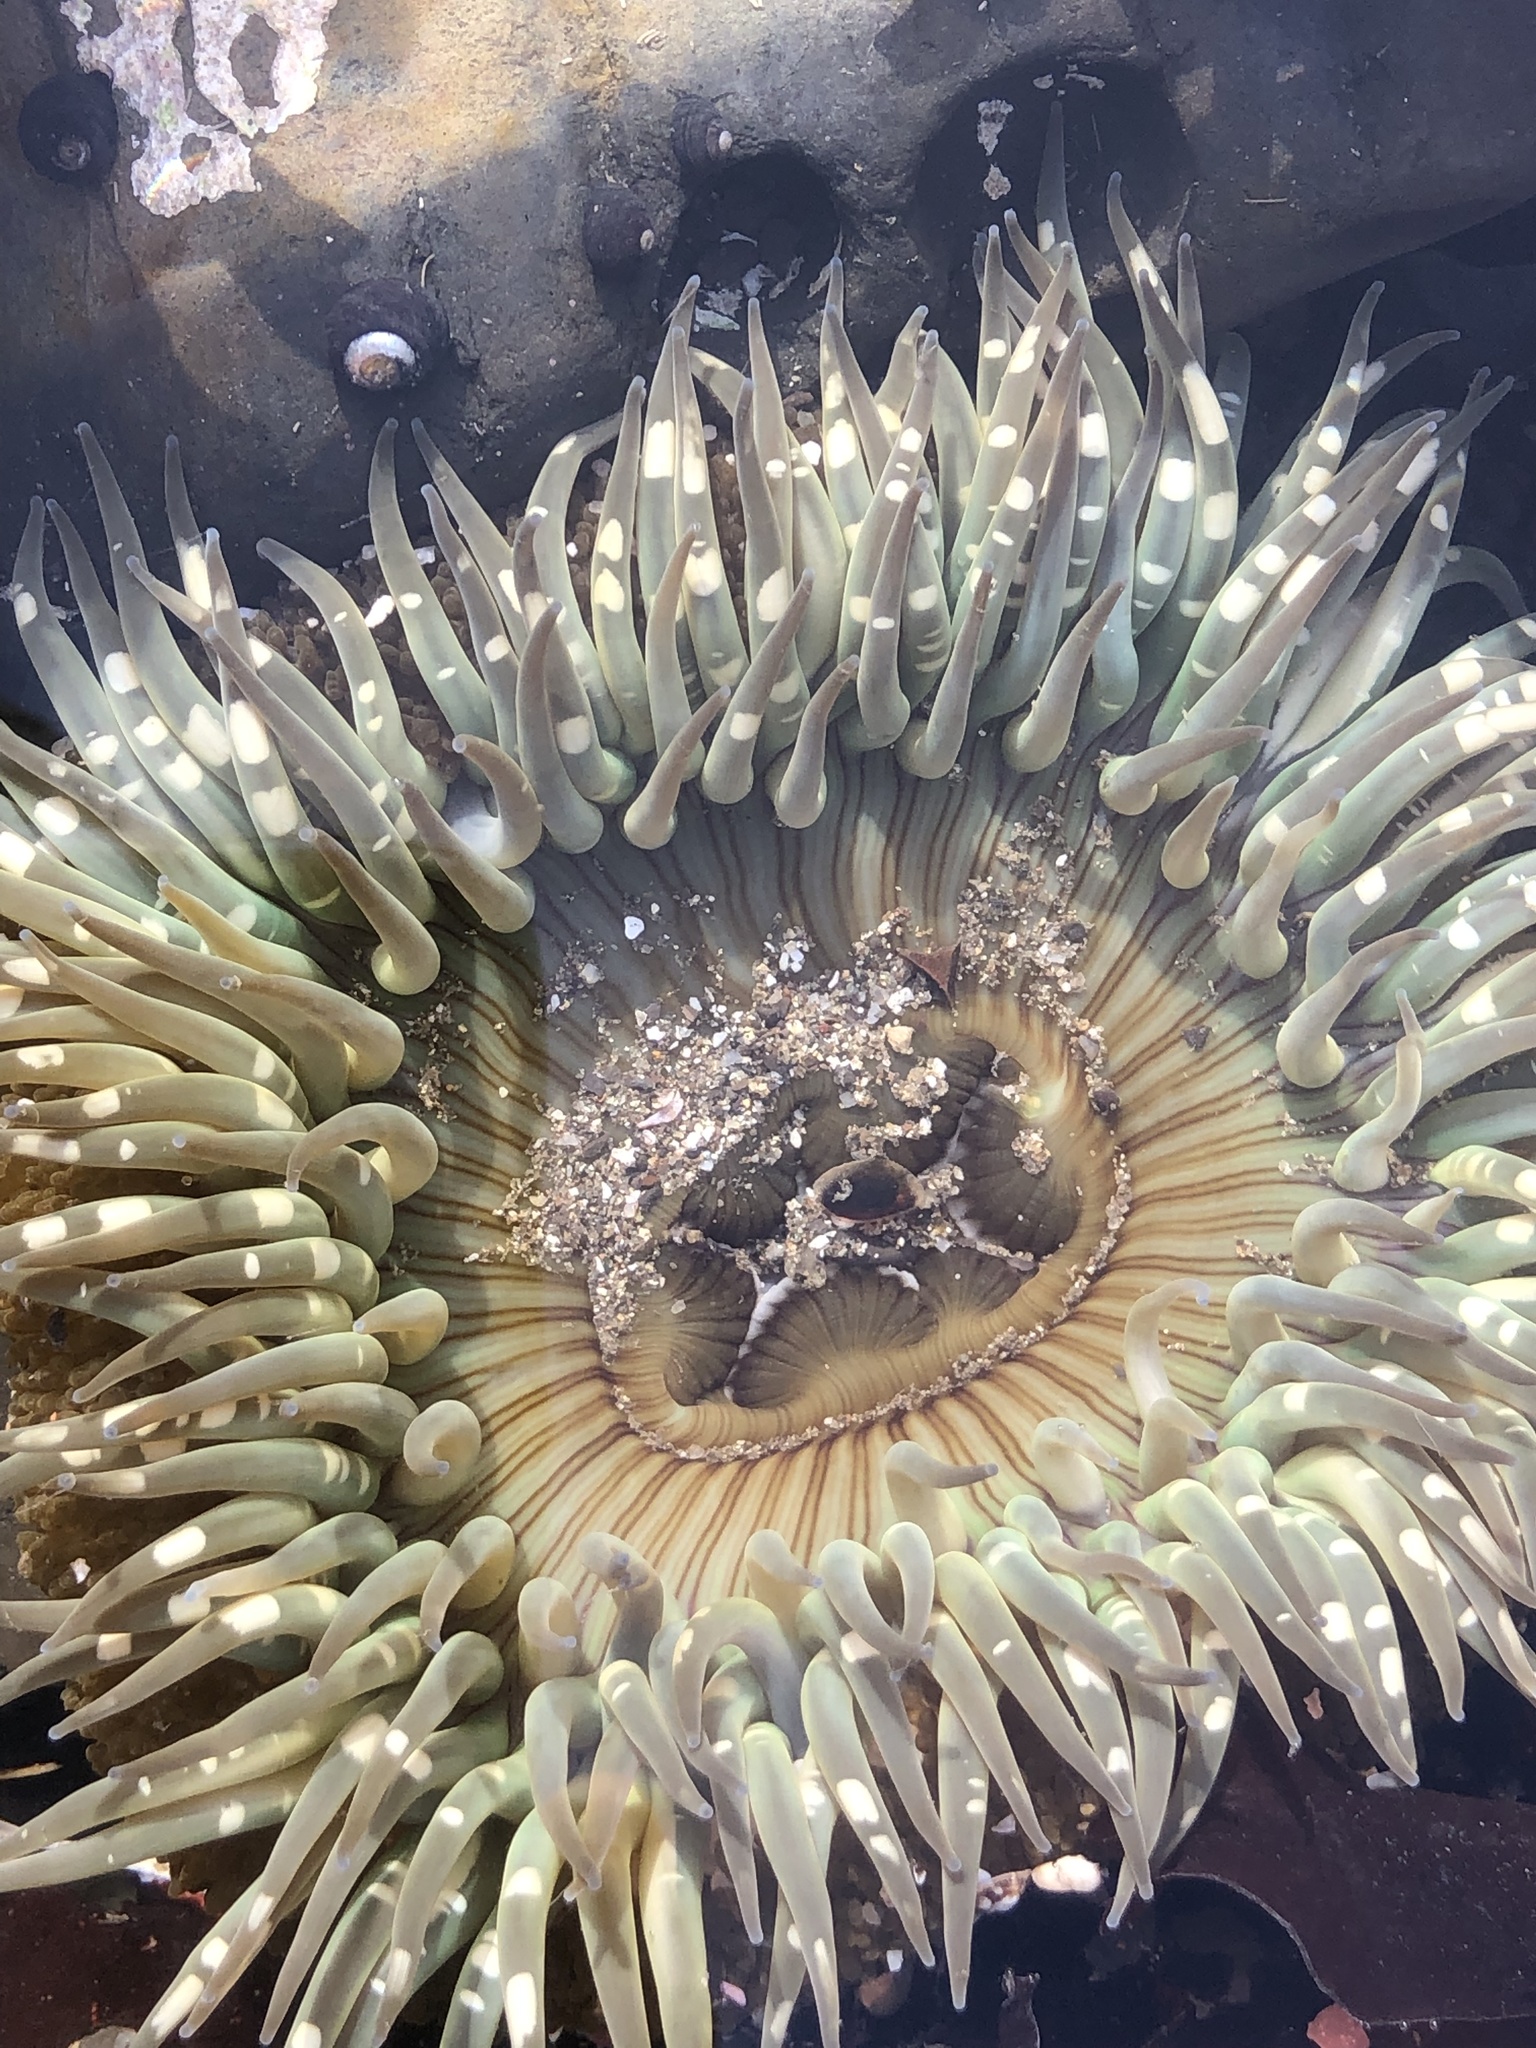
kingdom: Animalia
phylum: Cnidaria
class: Anthozoa
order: Actiniaria
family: Actiniidae
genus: Anthopleura
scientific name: Anthopleura sola
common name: Sun anemone
